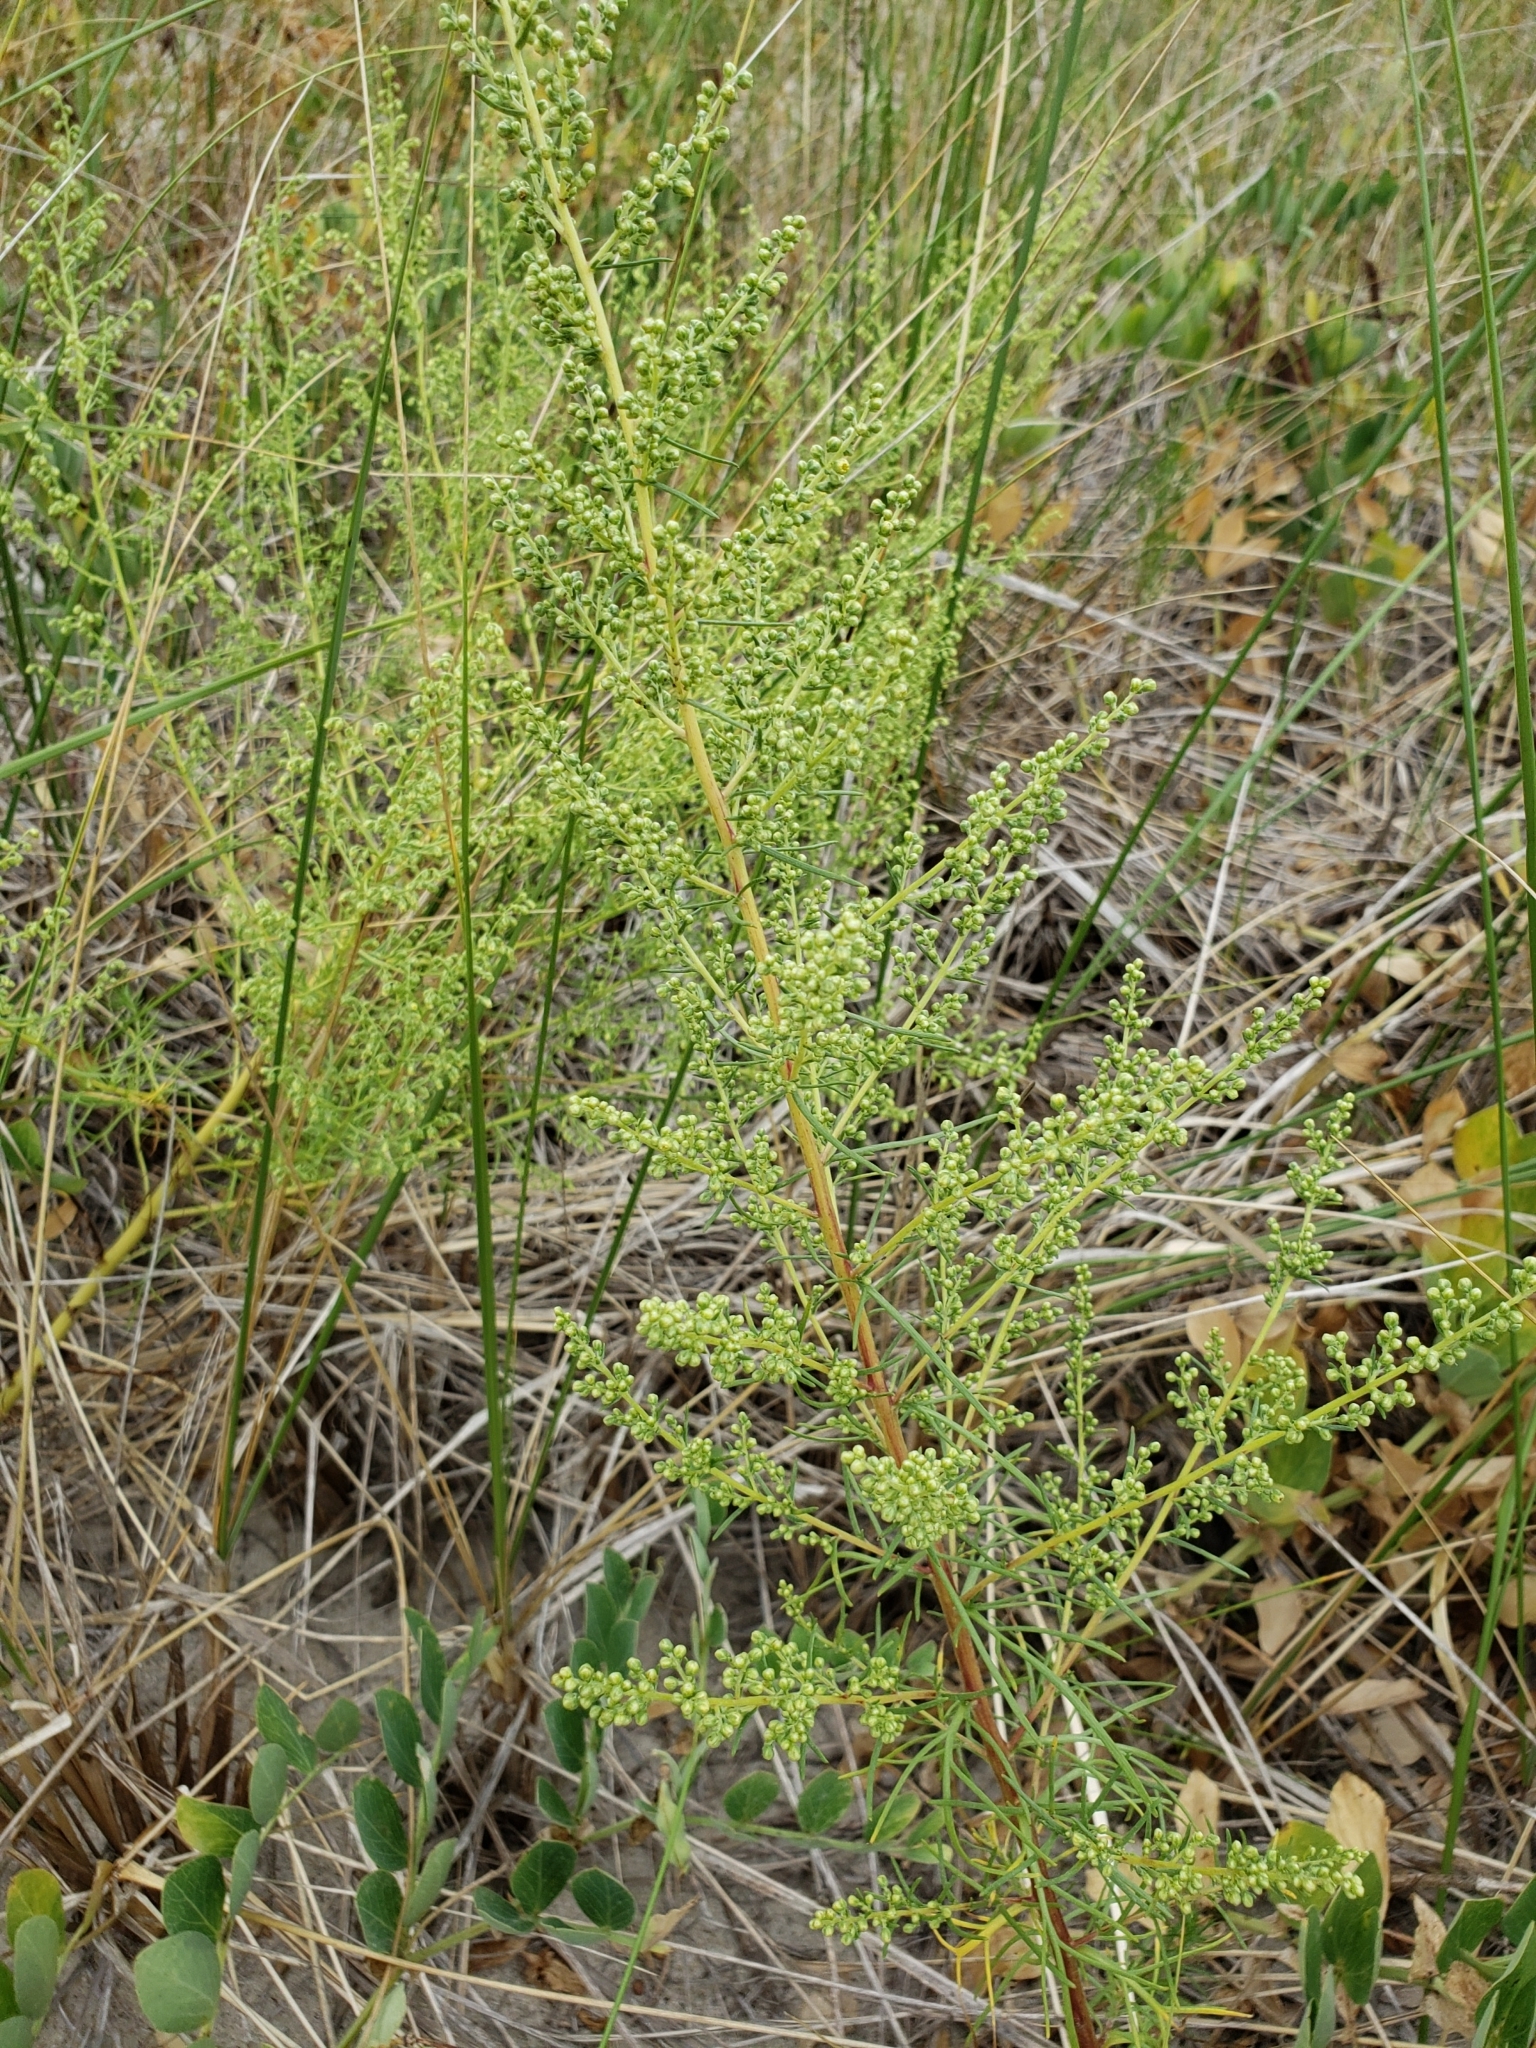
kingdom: Plantae
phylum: Tracheophyta
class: Magnoliopsida
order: Asterales
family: Asteraceae
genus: Artemisia
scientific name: Artemisia campestris
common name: Field wormwood
